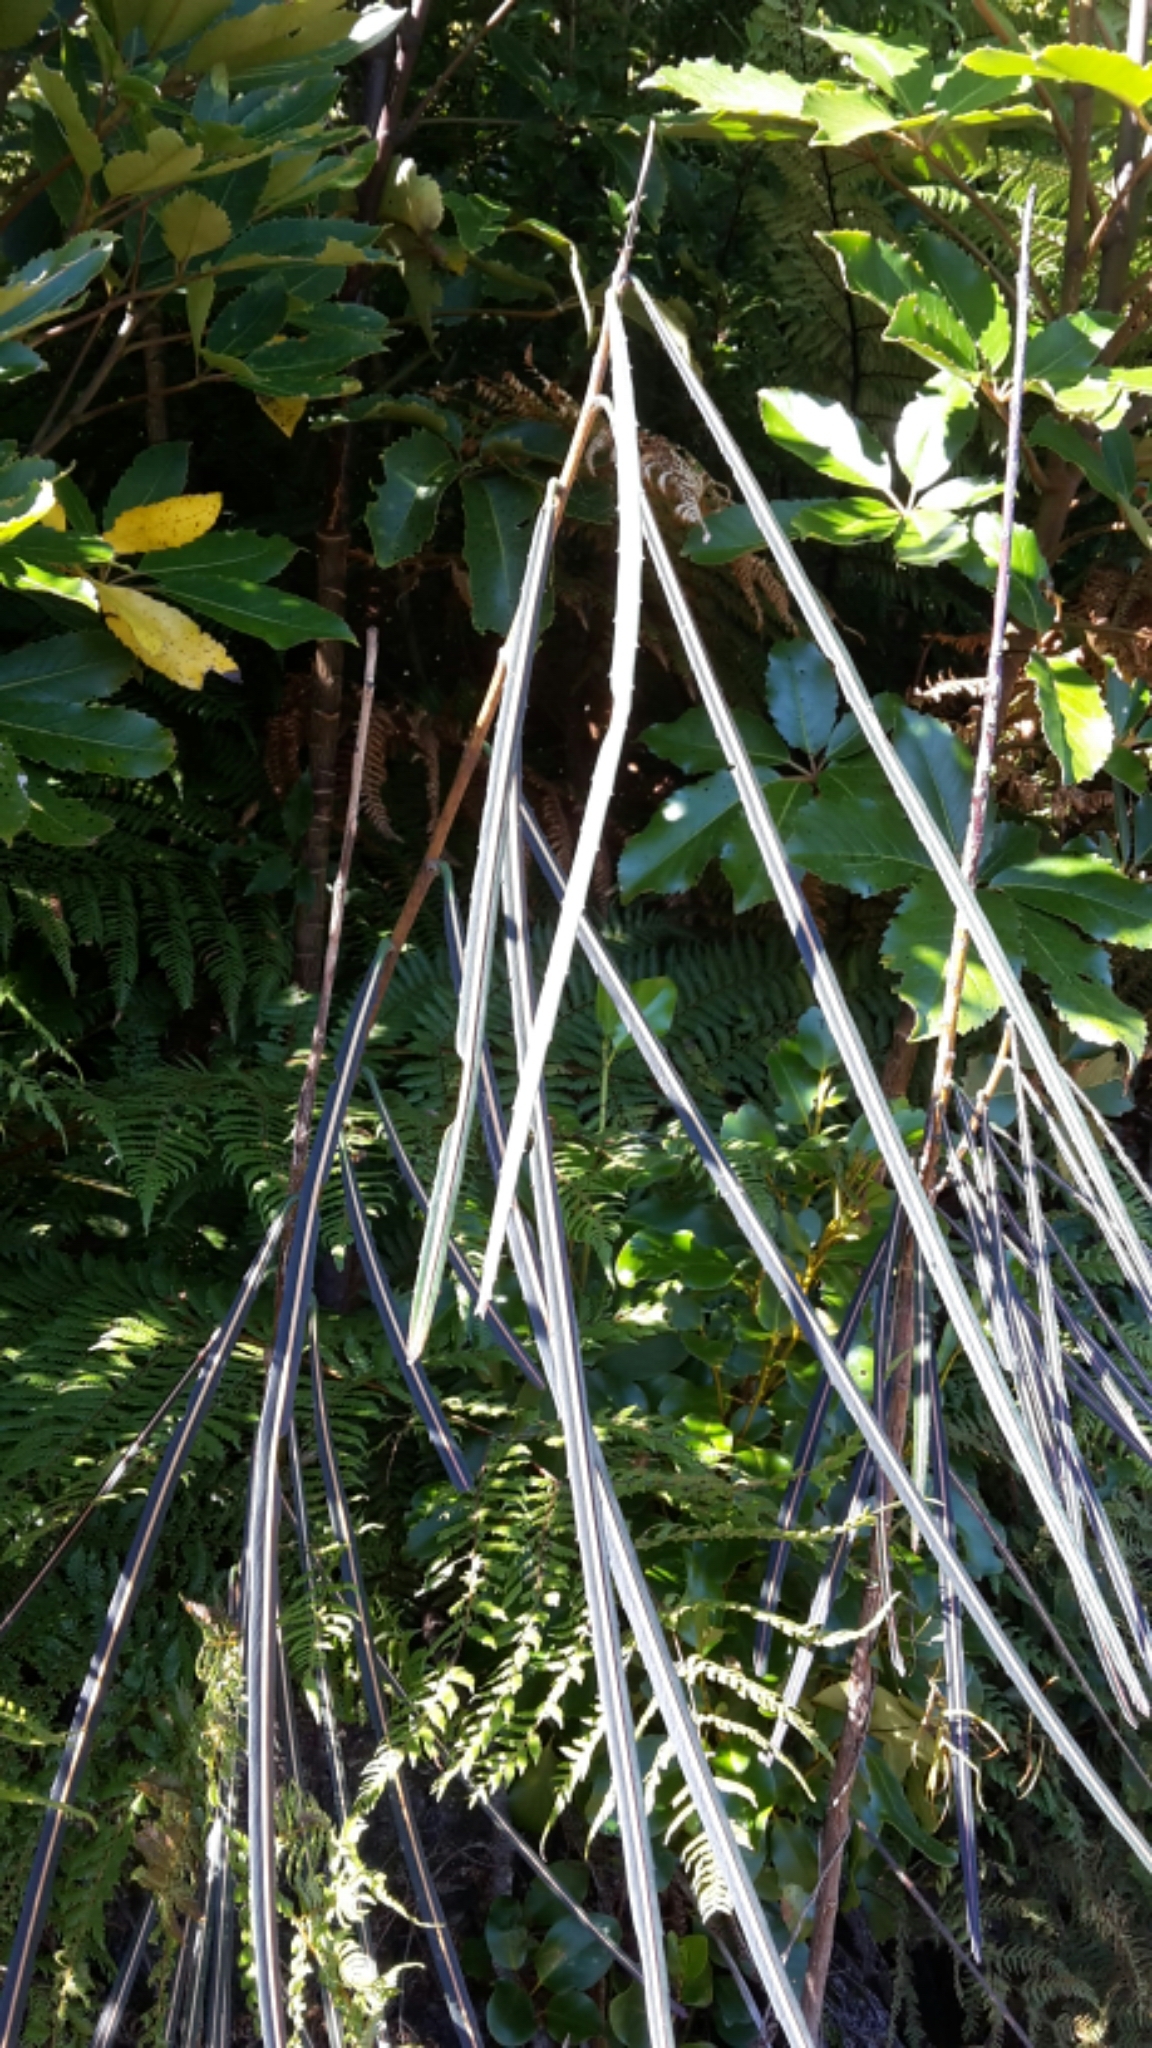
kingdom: Plantae
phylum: Tracheophyta
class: Magnoliopsida
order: Apiales
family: Araliaceae
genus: Pseudopanax
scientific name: Pseudopanax crassifolius
